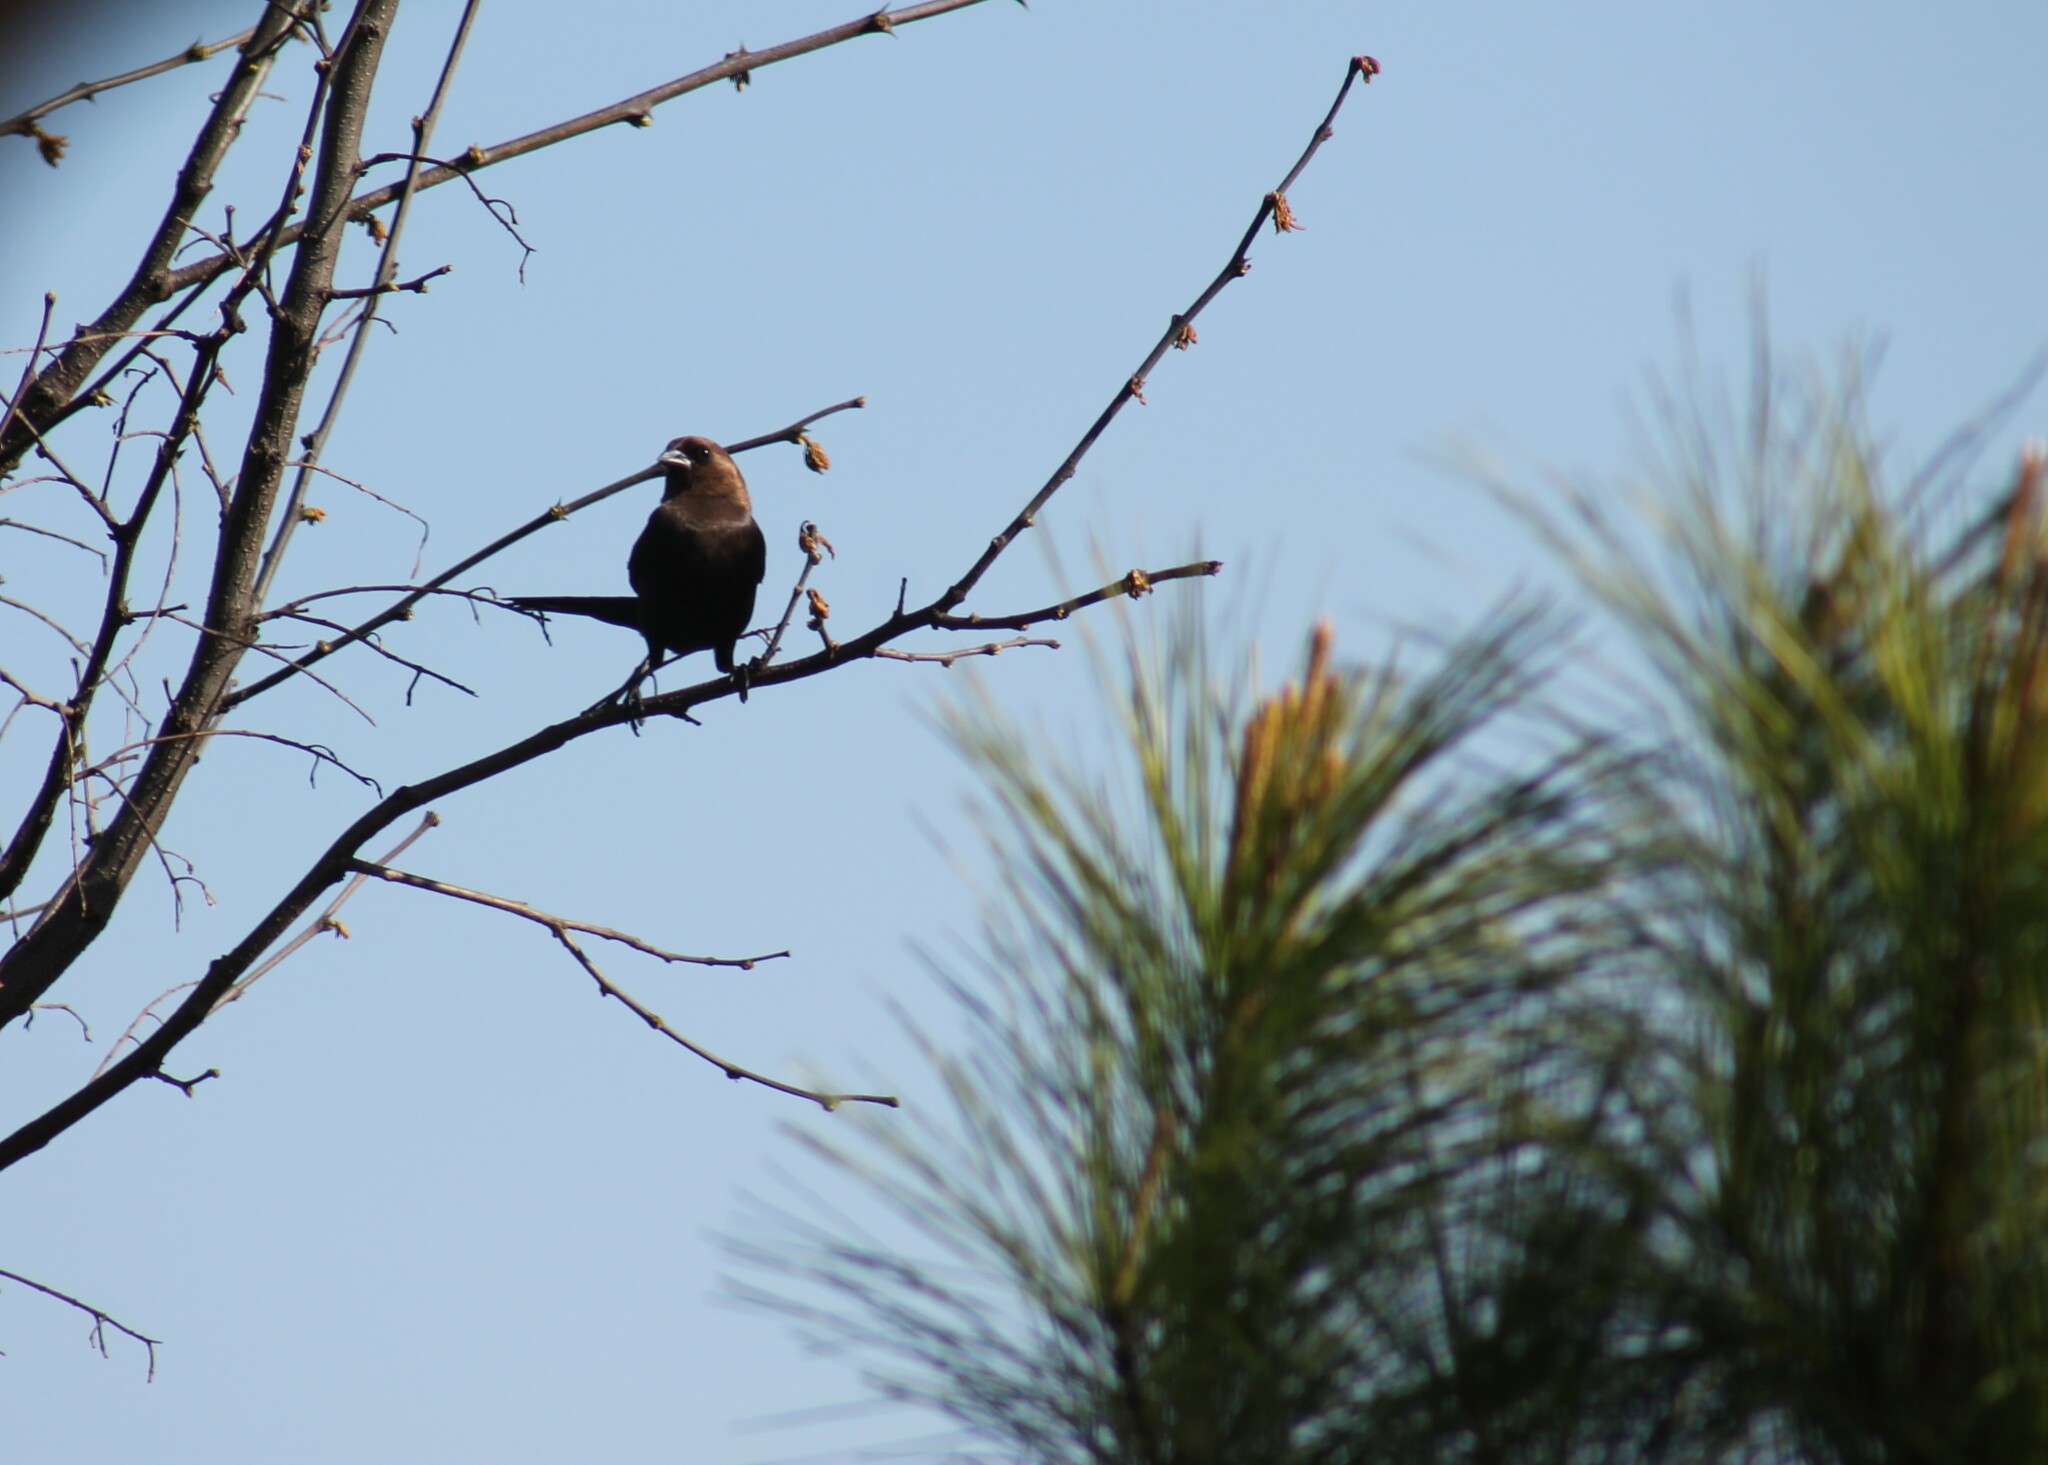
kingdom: Animalia
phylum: Chordata
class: Aves
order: Passeriformes
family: Icteridae
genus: Molothrus
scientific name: Molothrus ater
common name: Brown-headed cowbird
